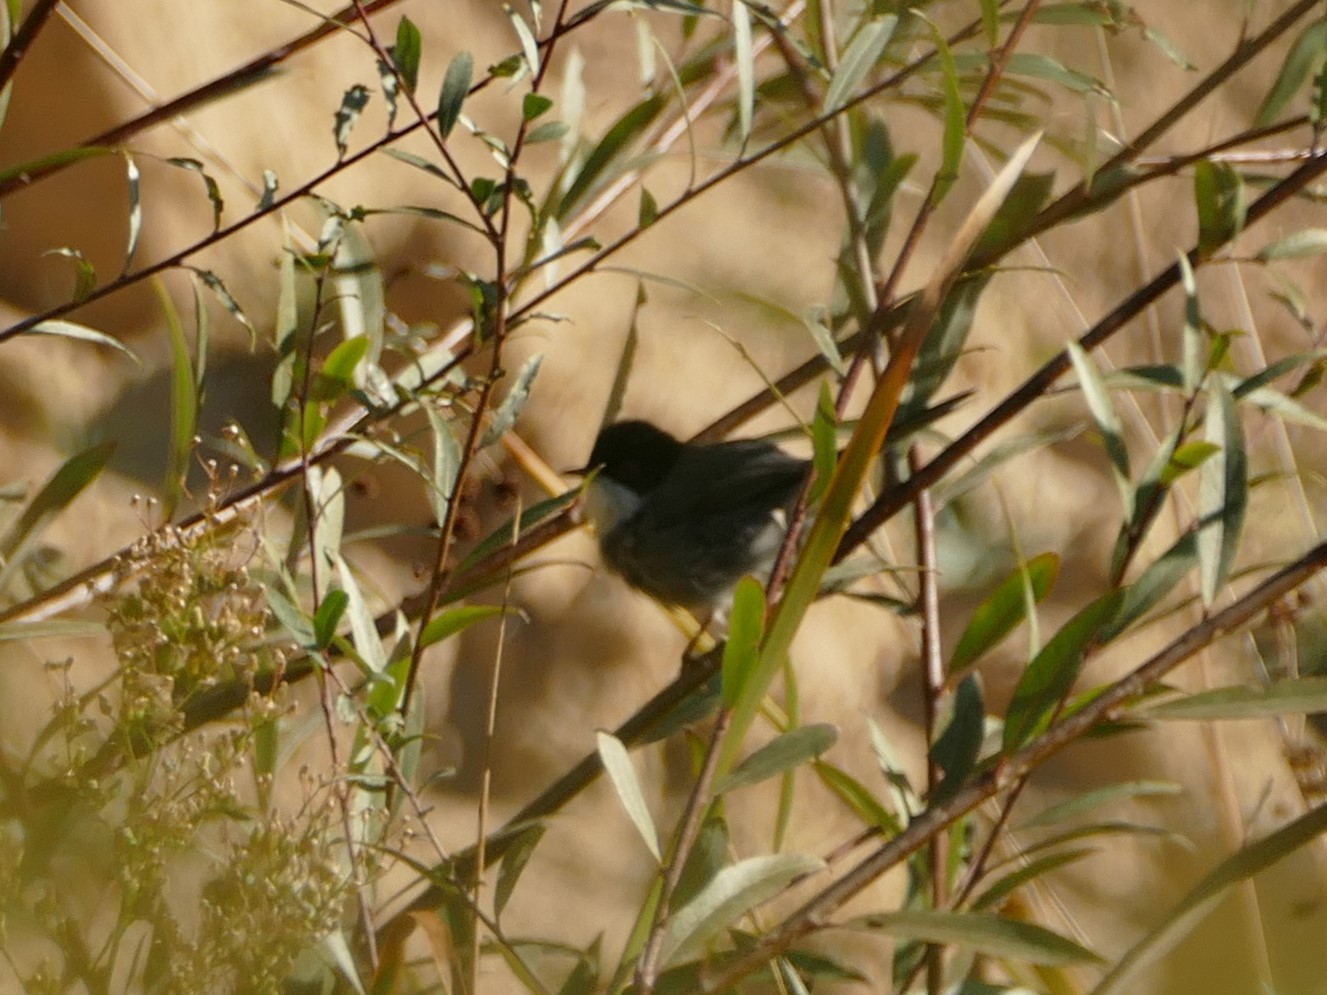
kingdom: Animalia
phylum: Chordata
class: Aves
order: Passeriformes
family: Sylviidae
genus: Curruca
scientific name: Curruca melanocephala
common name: Sardinian warbler
